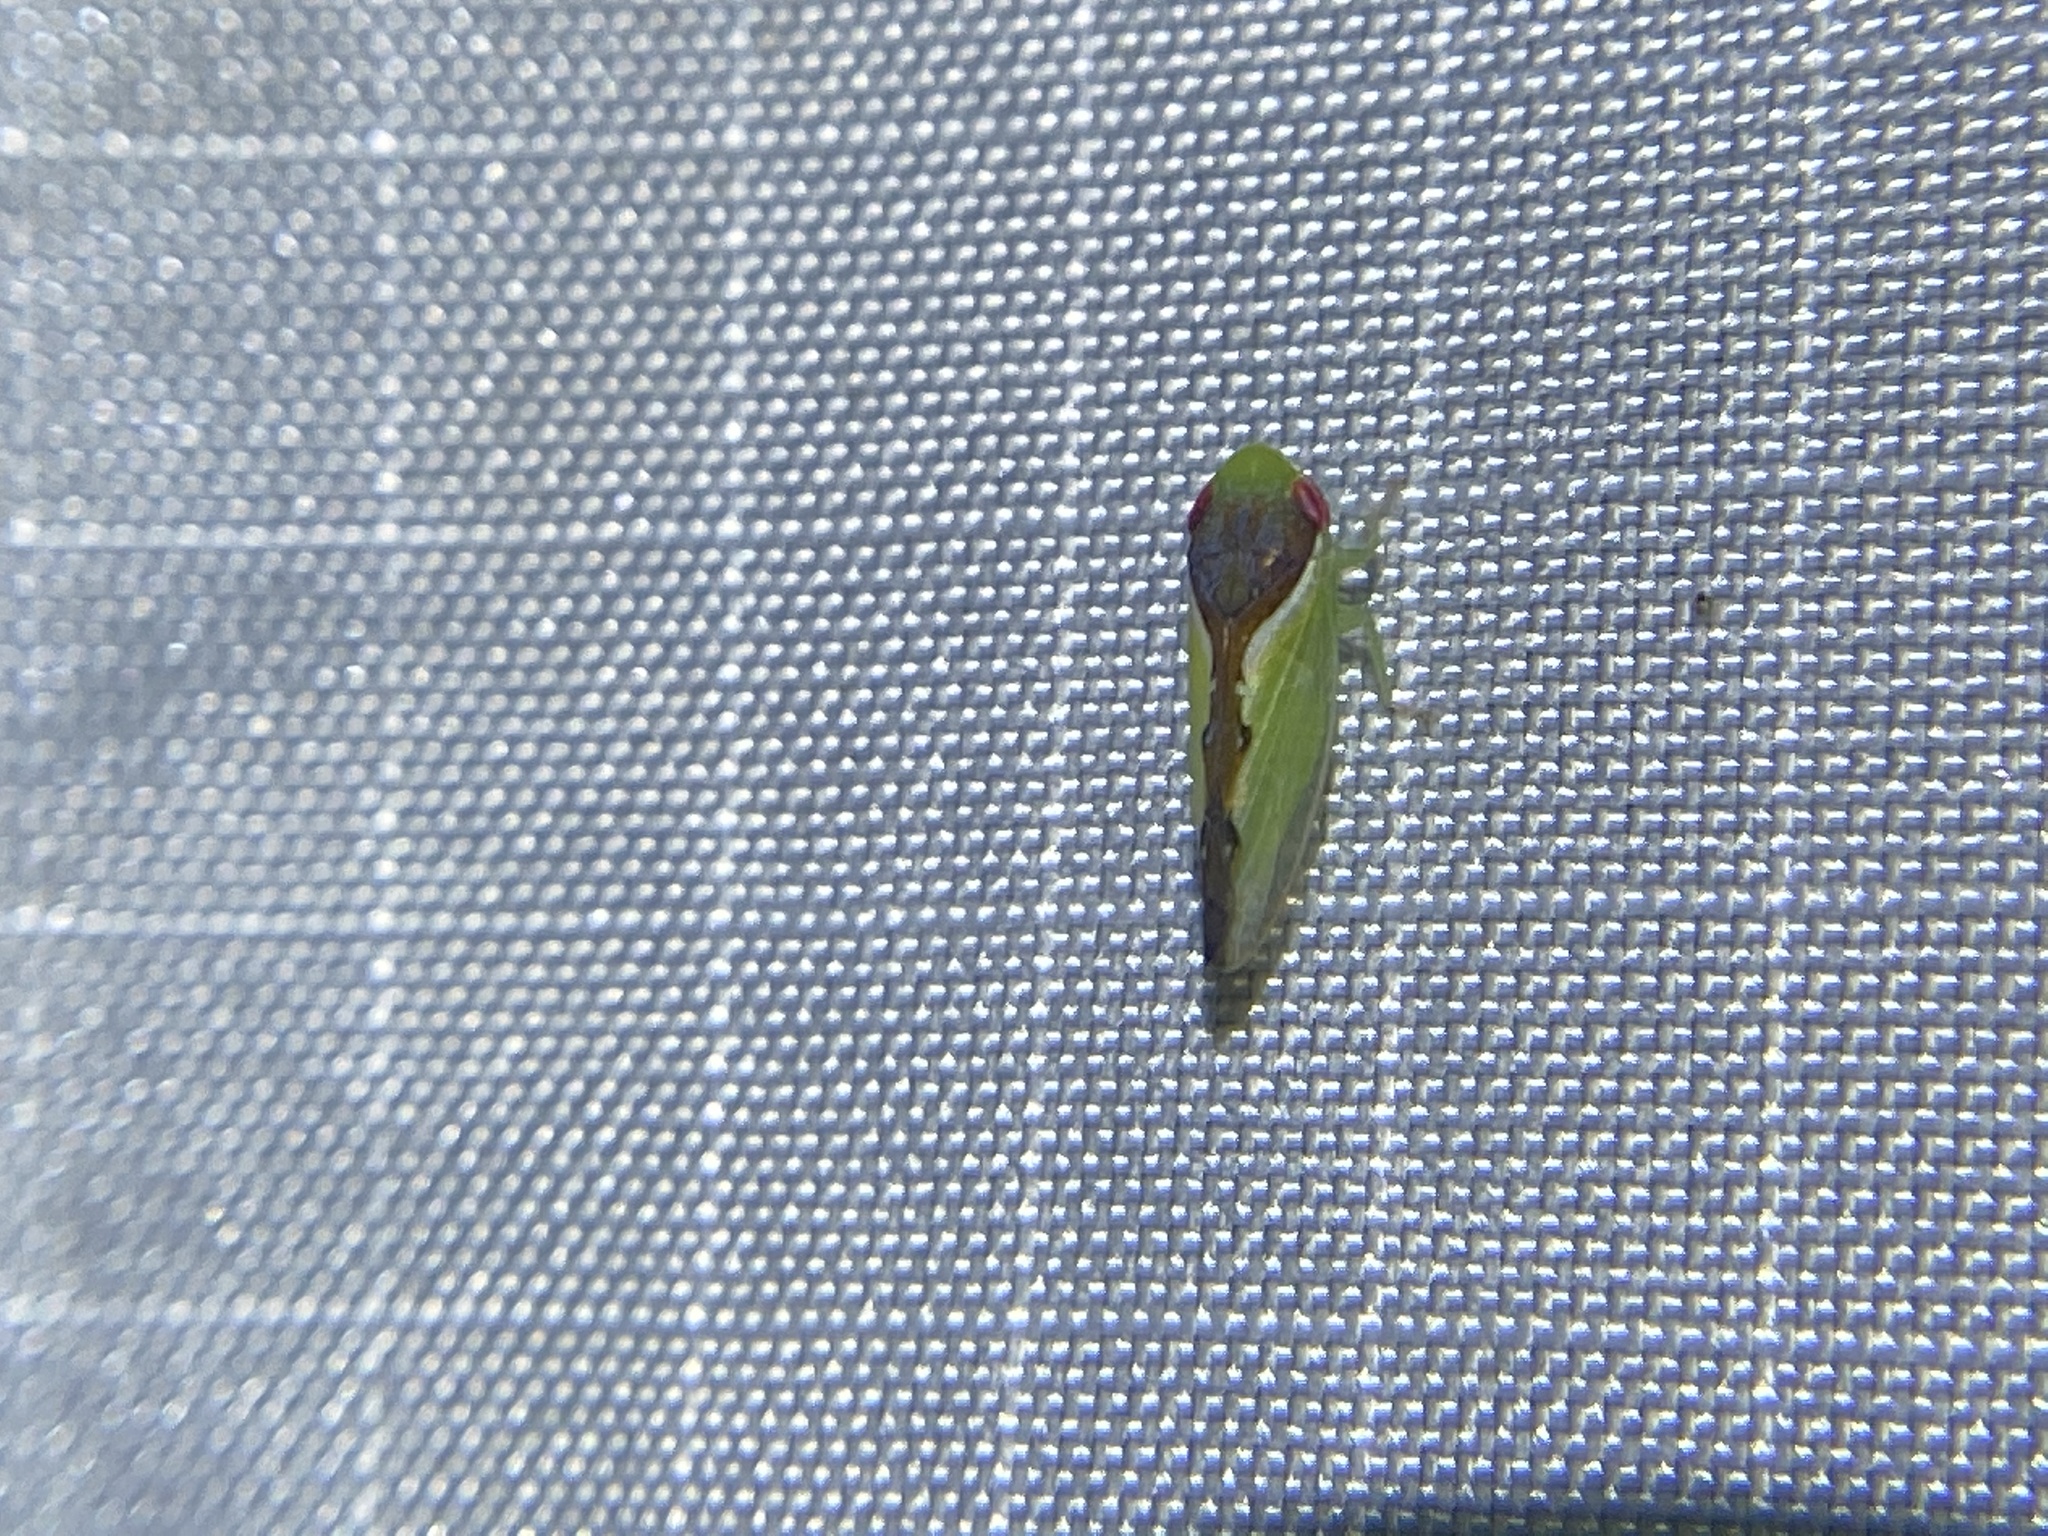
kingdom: Animalia
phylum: Arthropoda
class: Insecta
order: Hemiptera
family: Cicadellidae
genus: Omansobara ing
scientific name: Omansobara ing Omansobara palliolata
